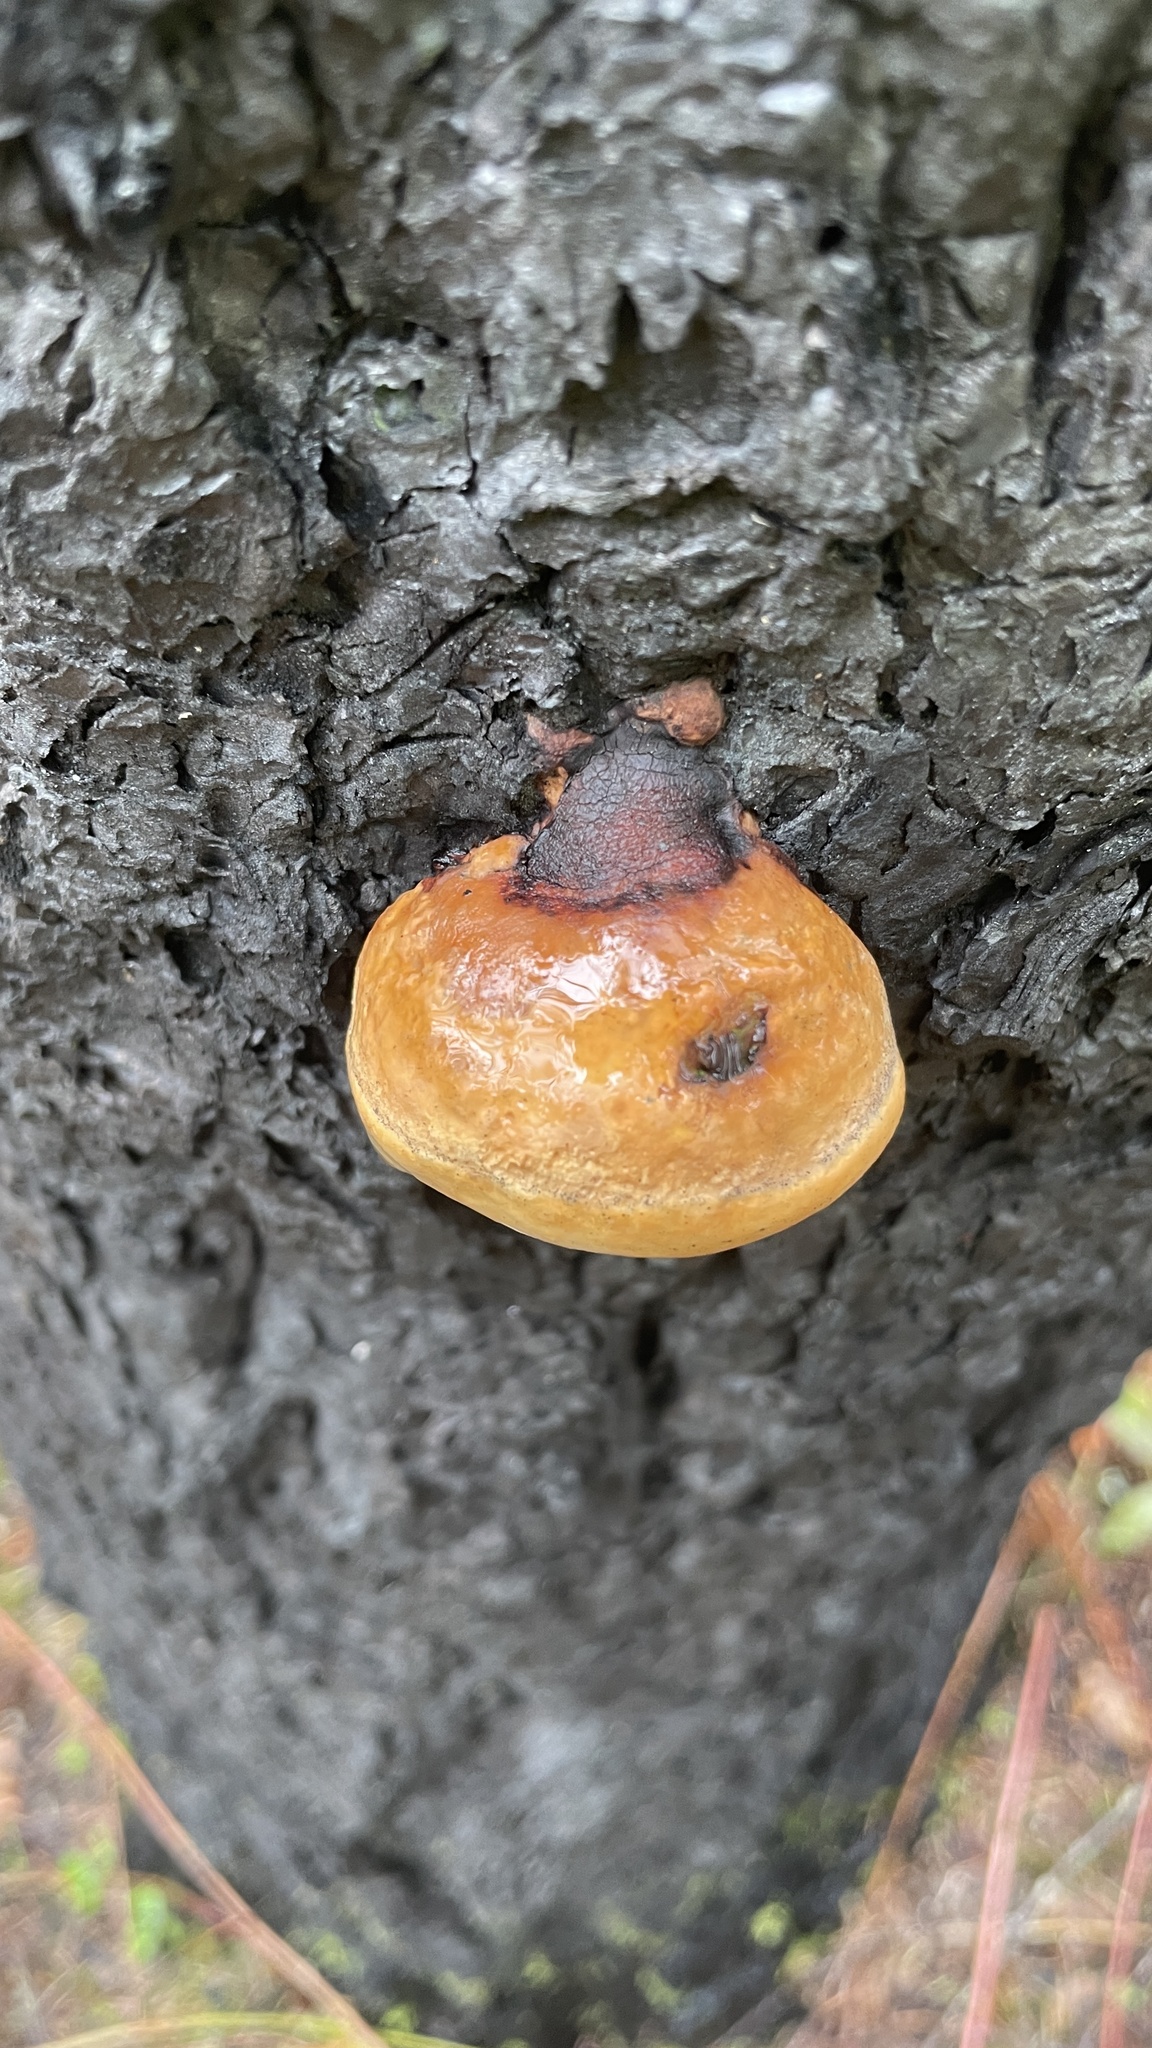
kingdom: Fungi
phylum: Basidiomycota
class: Agaricomycetes
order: Polyporales
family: Fomitopsidaceae
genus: Fomitopsis
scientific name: Fomitopsis mounceae
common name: Northern red belt
